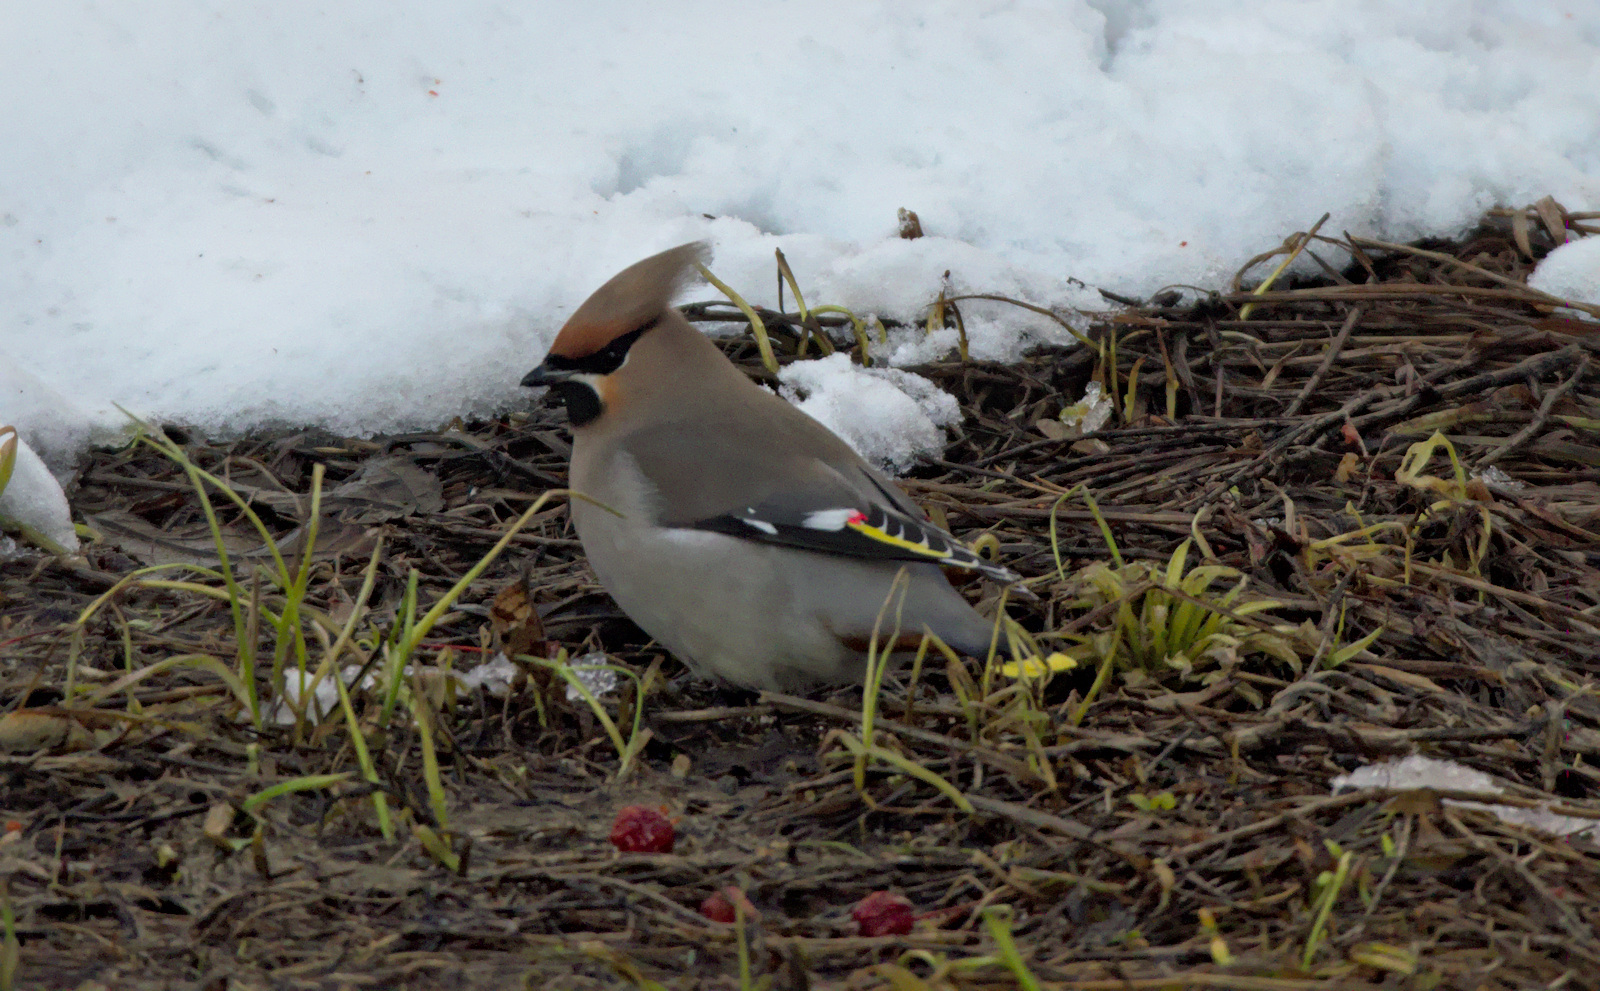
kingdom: Animalia
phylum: Chordata
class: Aves
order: Passeriformes
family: Bombycillidae
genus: Bombycilla
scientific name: Bombycilla garrulus
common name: Bohemian waxwing
